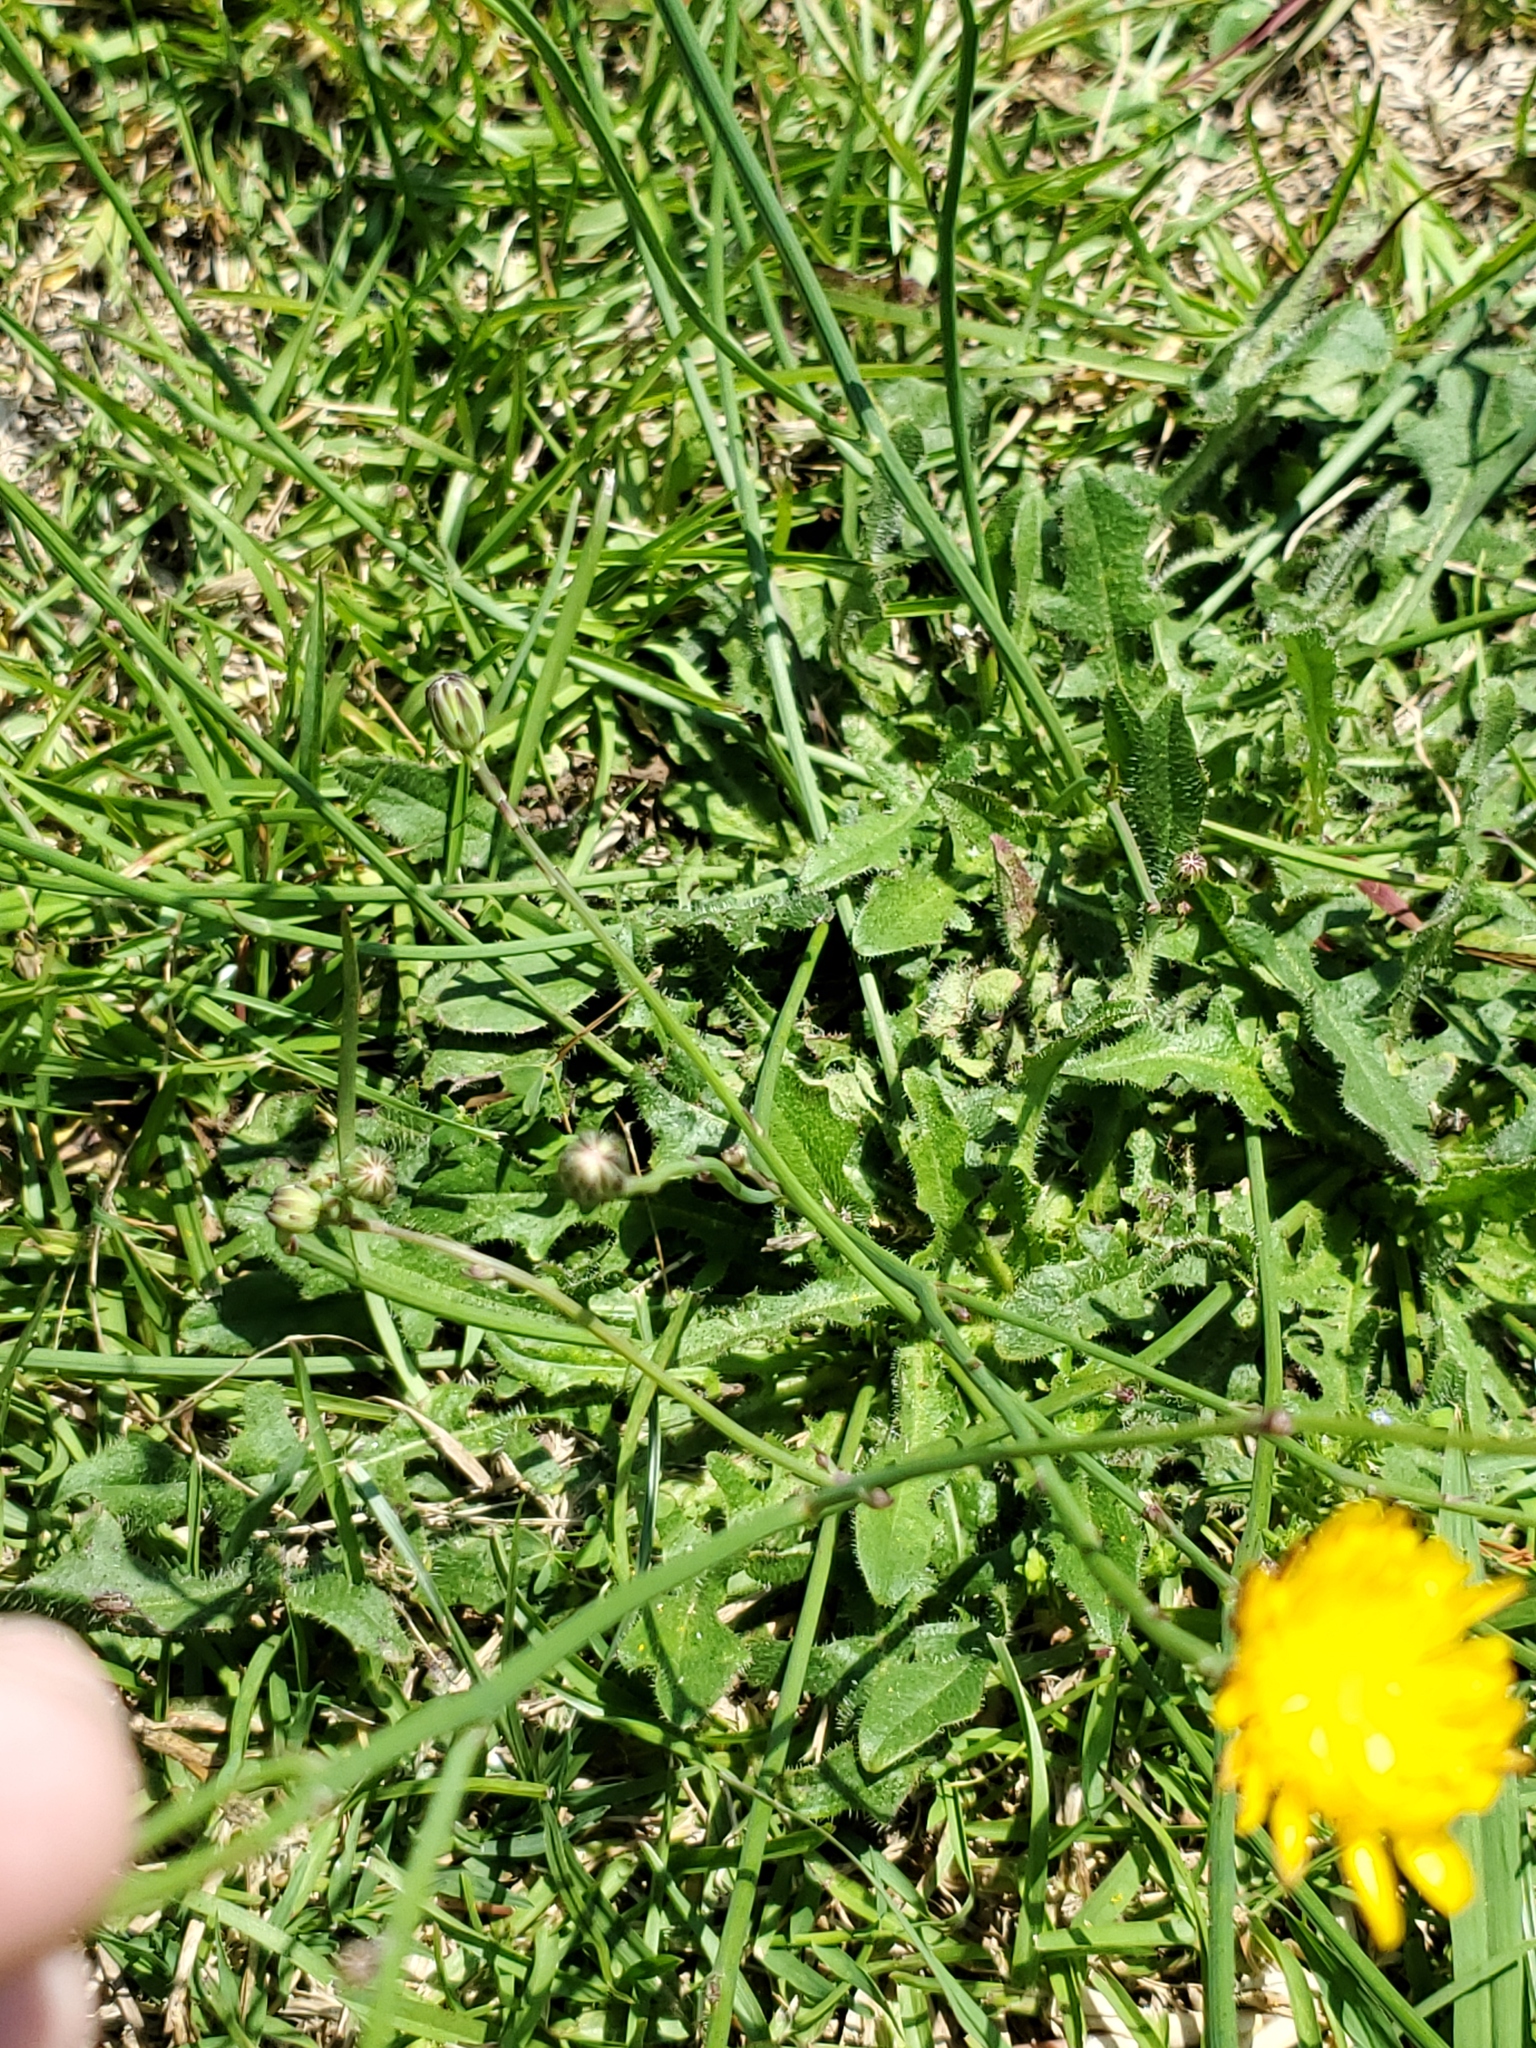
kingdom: Plantae
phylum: Tracheophyta
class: Magnoliopsida
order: Asterales
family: Asteraceae
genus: Hypochaeris
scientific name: Hypochaeris radicata
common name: Flatweed
